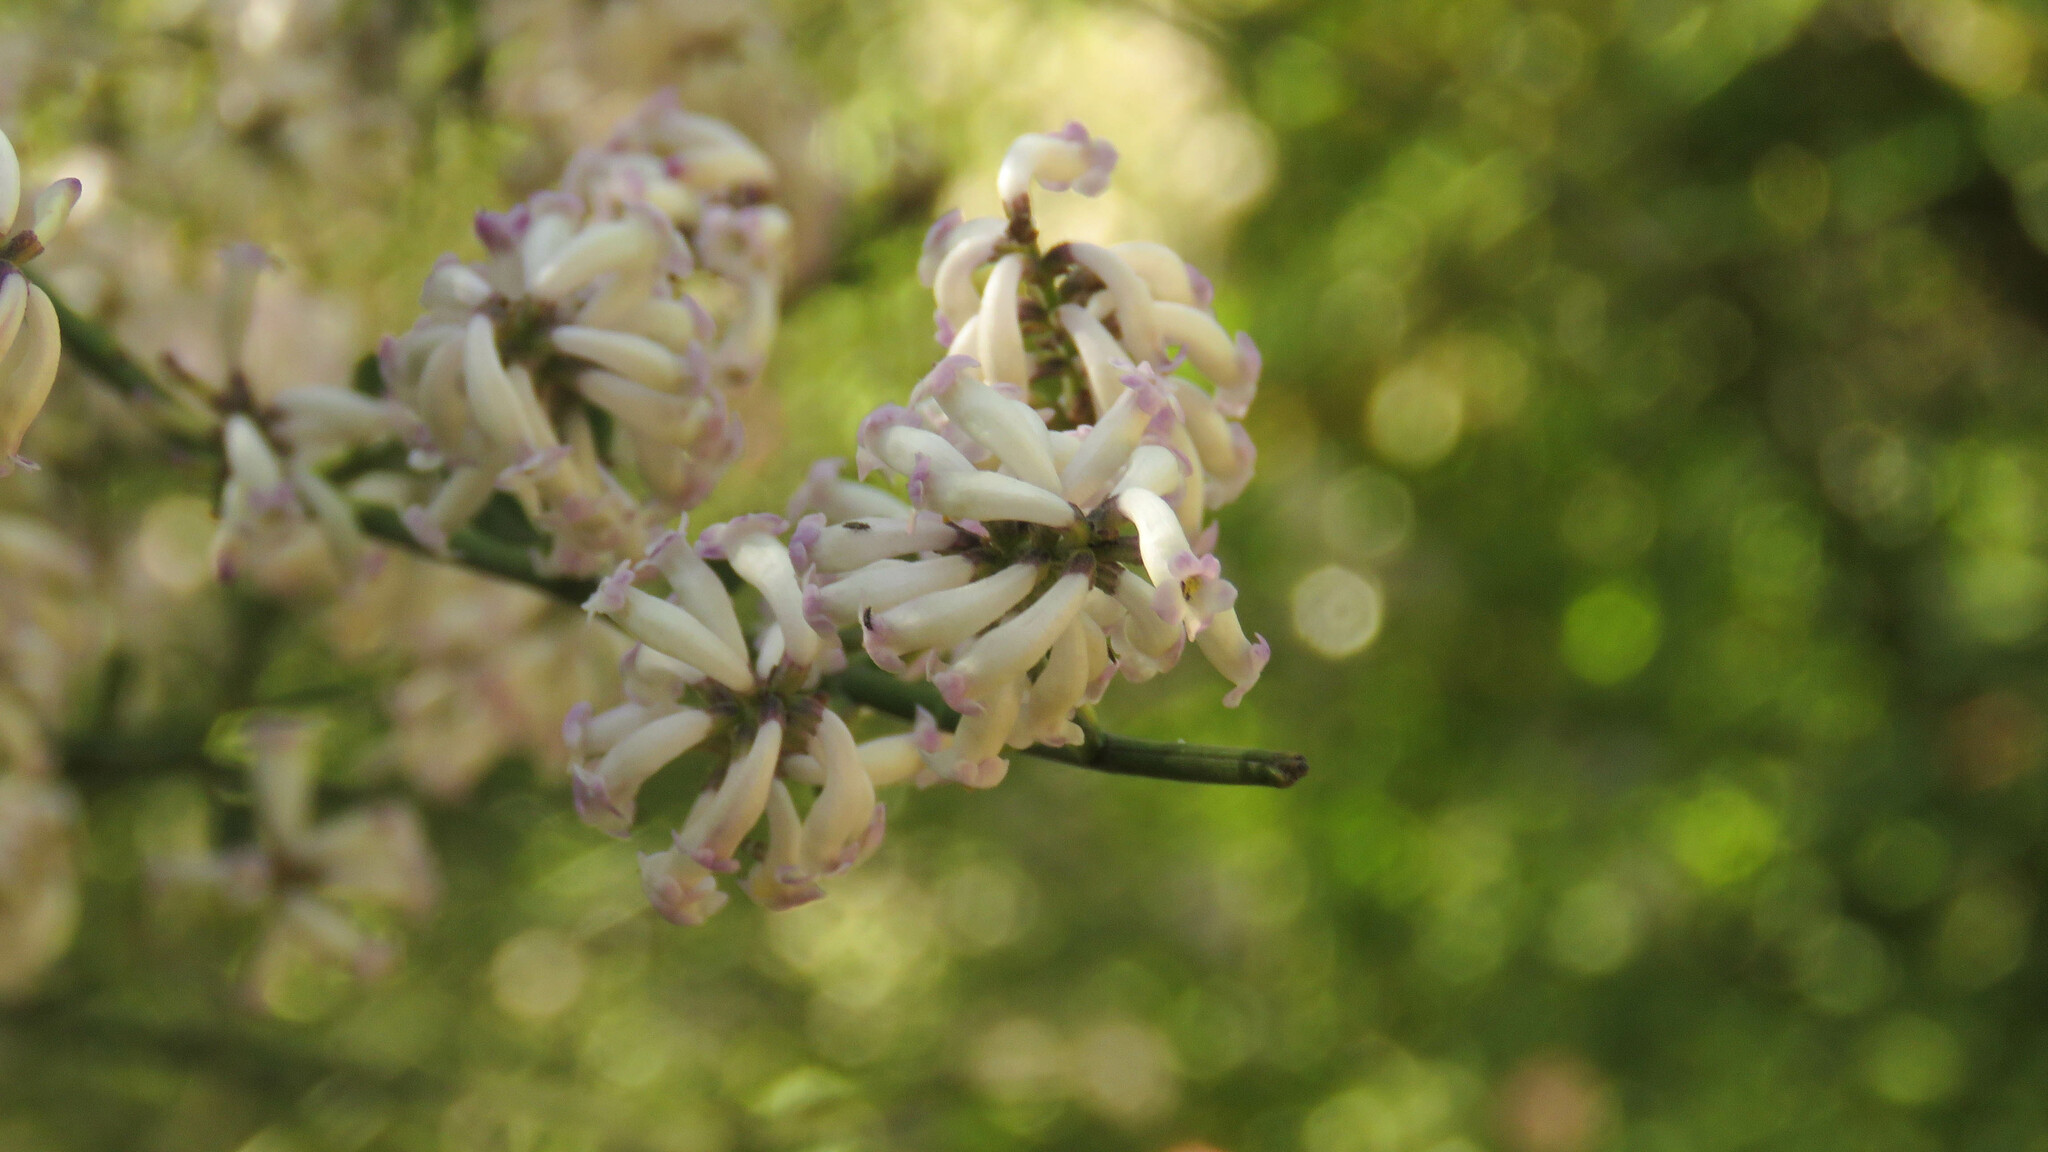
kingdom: Plantae
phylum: Tracheophyta
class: Magnoliopsida
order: Lamiales
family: Verbenaceae
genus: Diostea
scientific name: Diostea juncea
